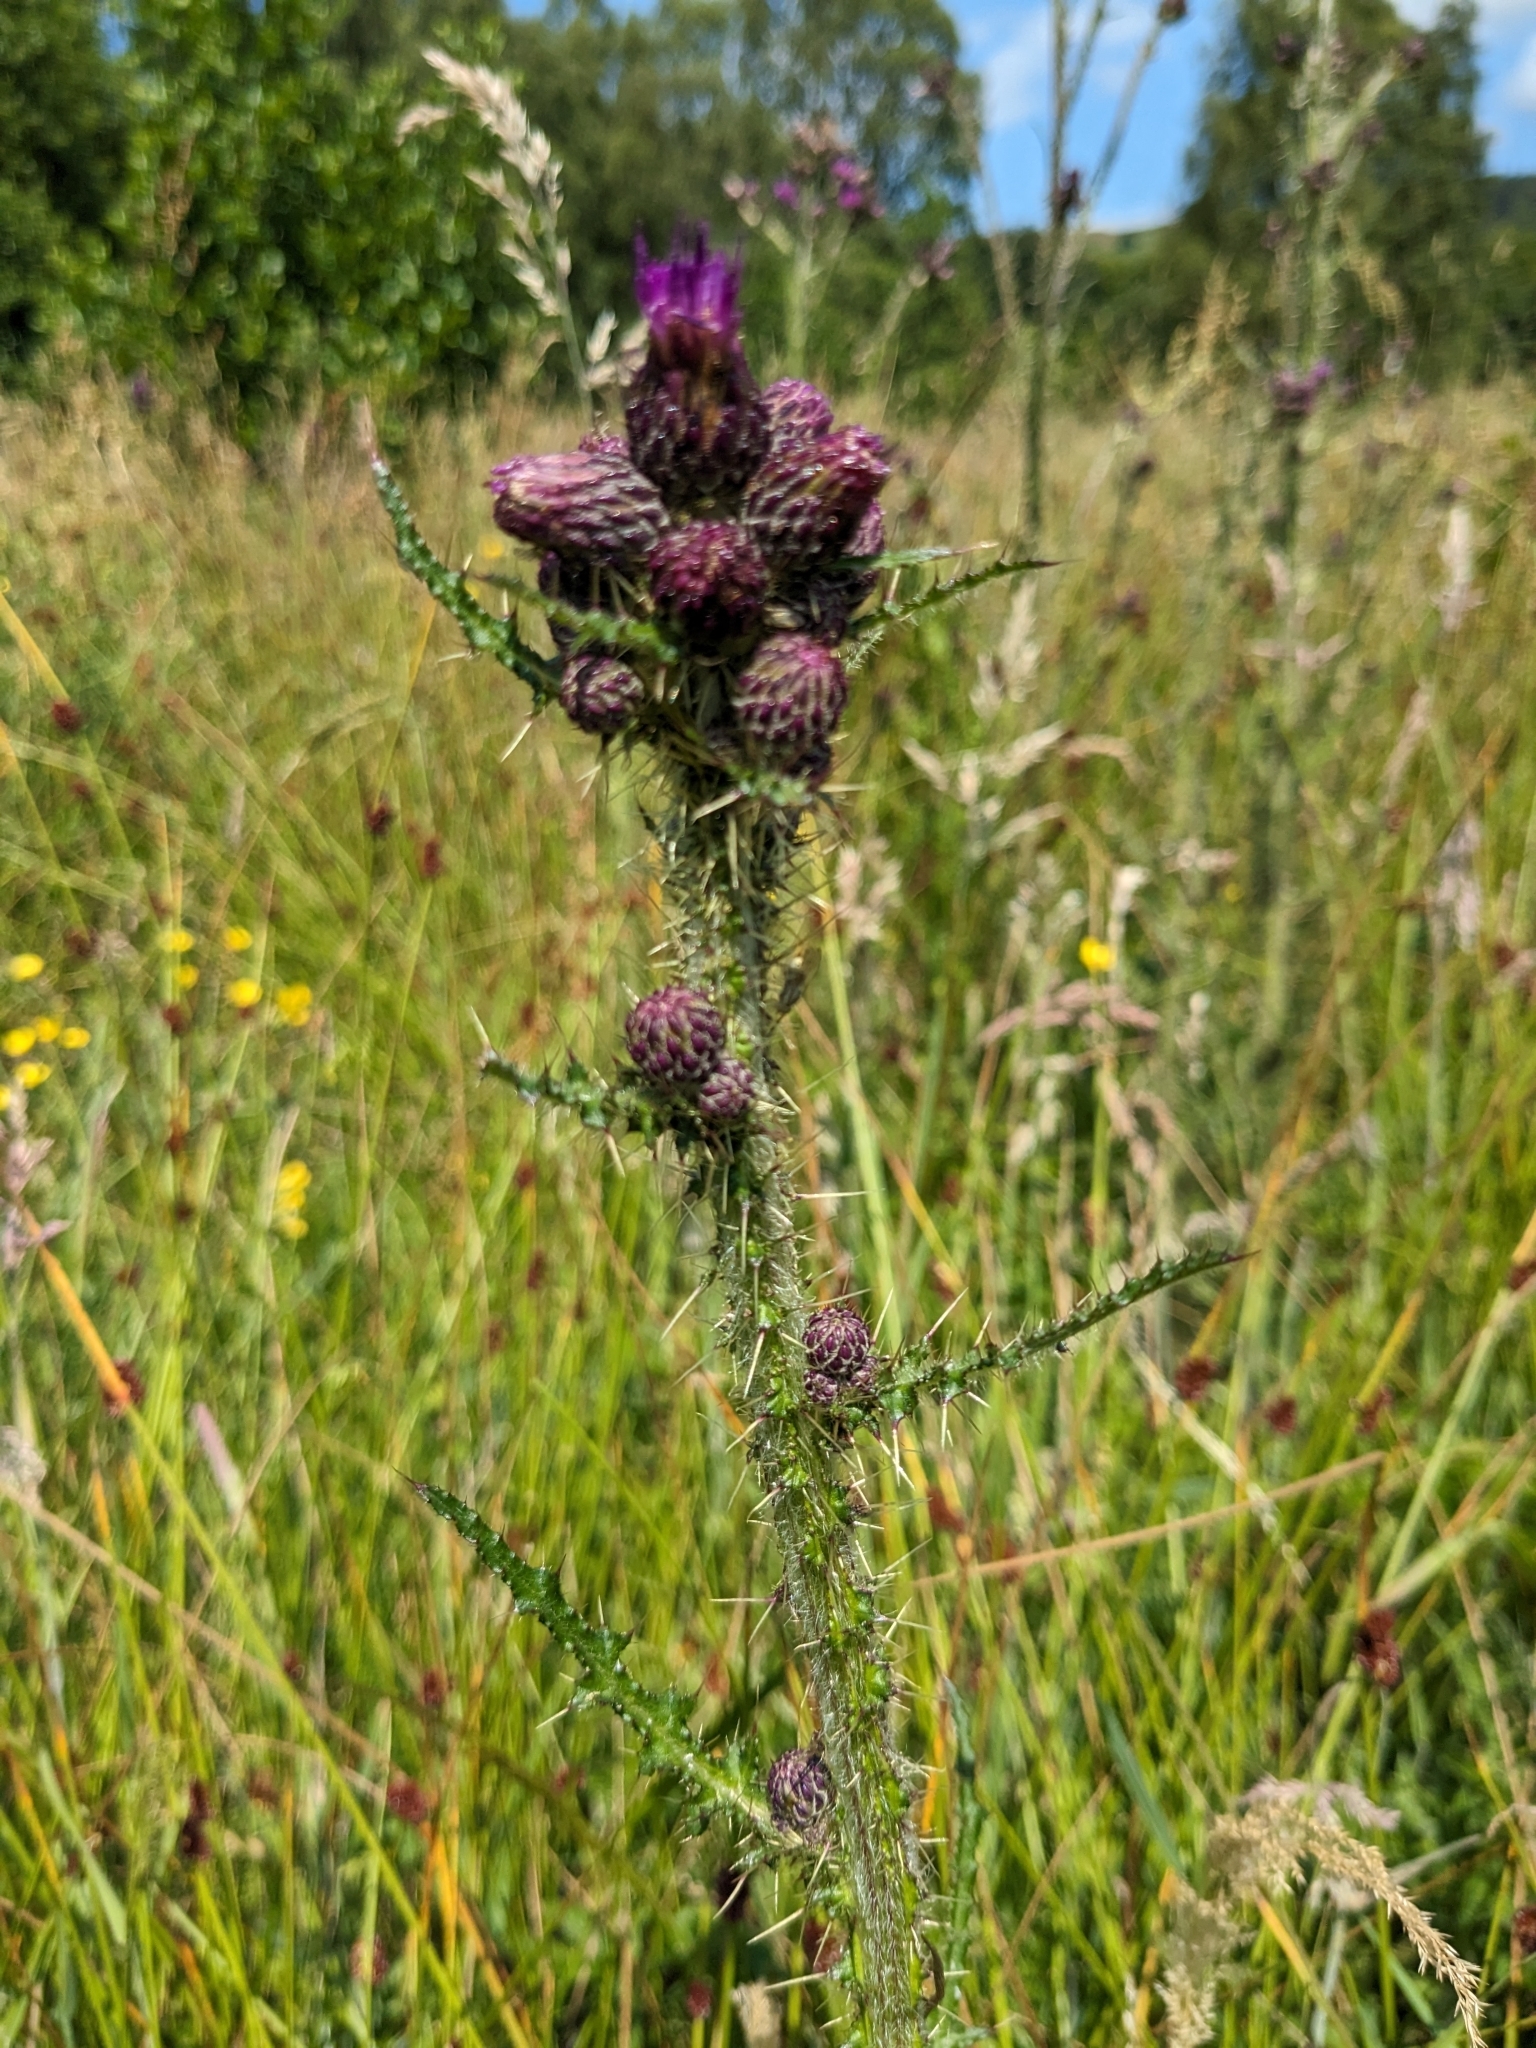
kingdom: Plantae
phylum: Tracheophyta
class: Magnoliopsida
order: Asterales
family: Asteraceae
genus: Cirsium
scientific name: Cirsium palustre
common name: Marsh thistle
